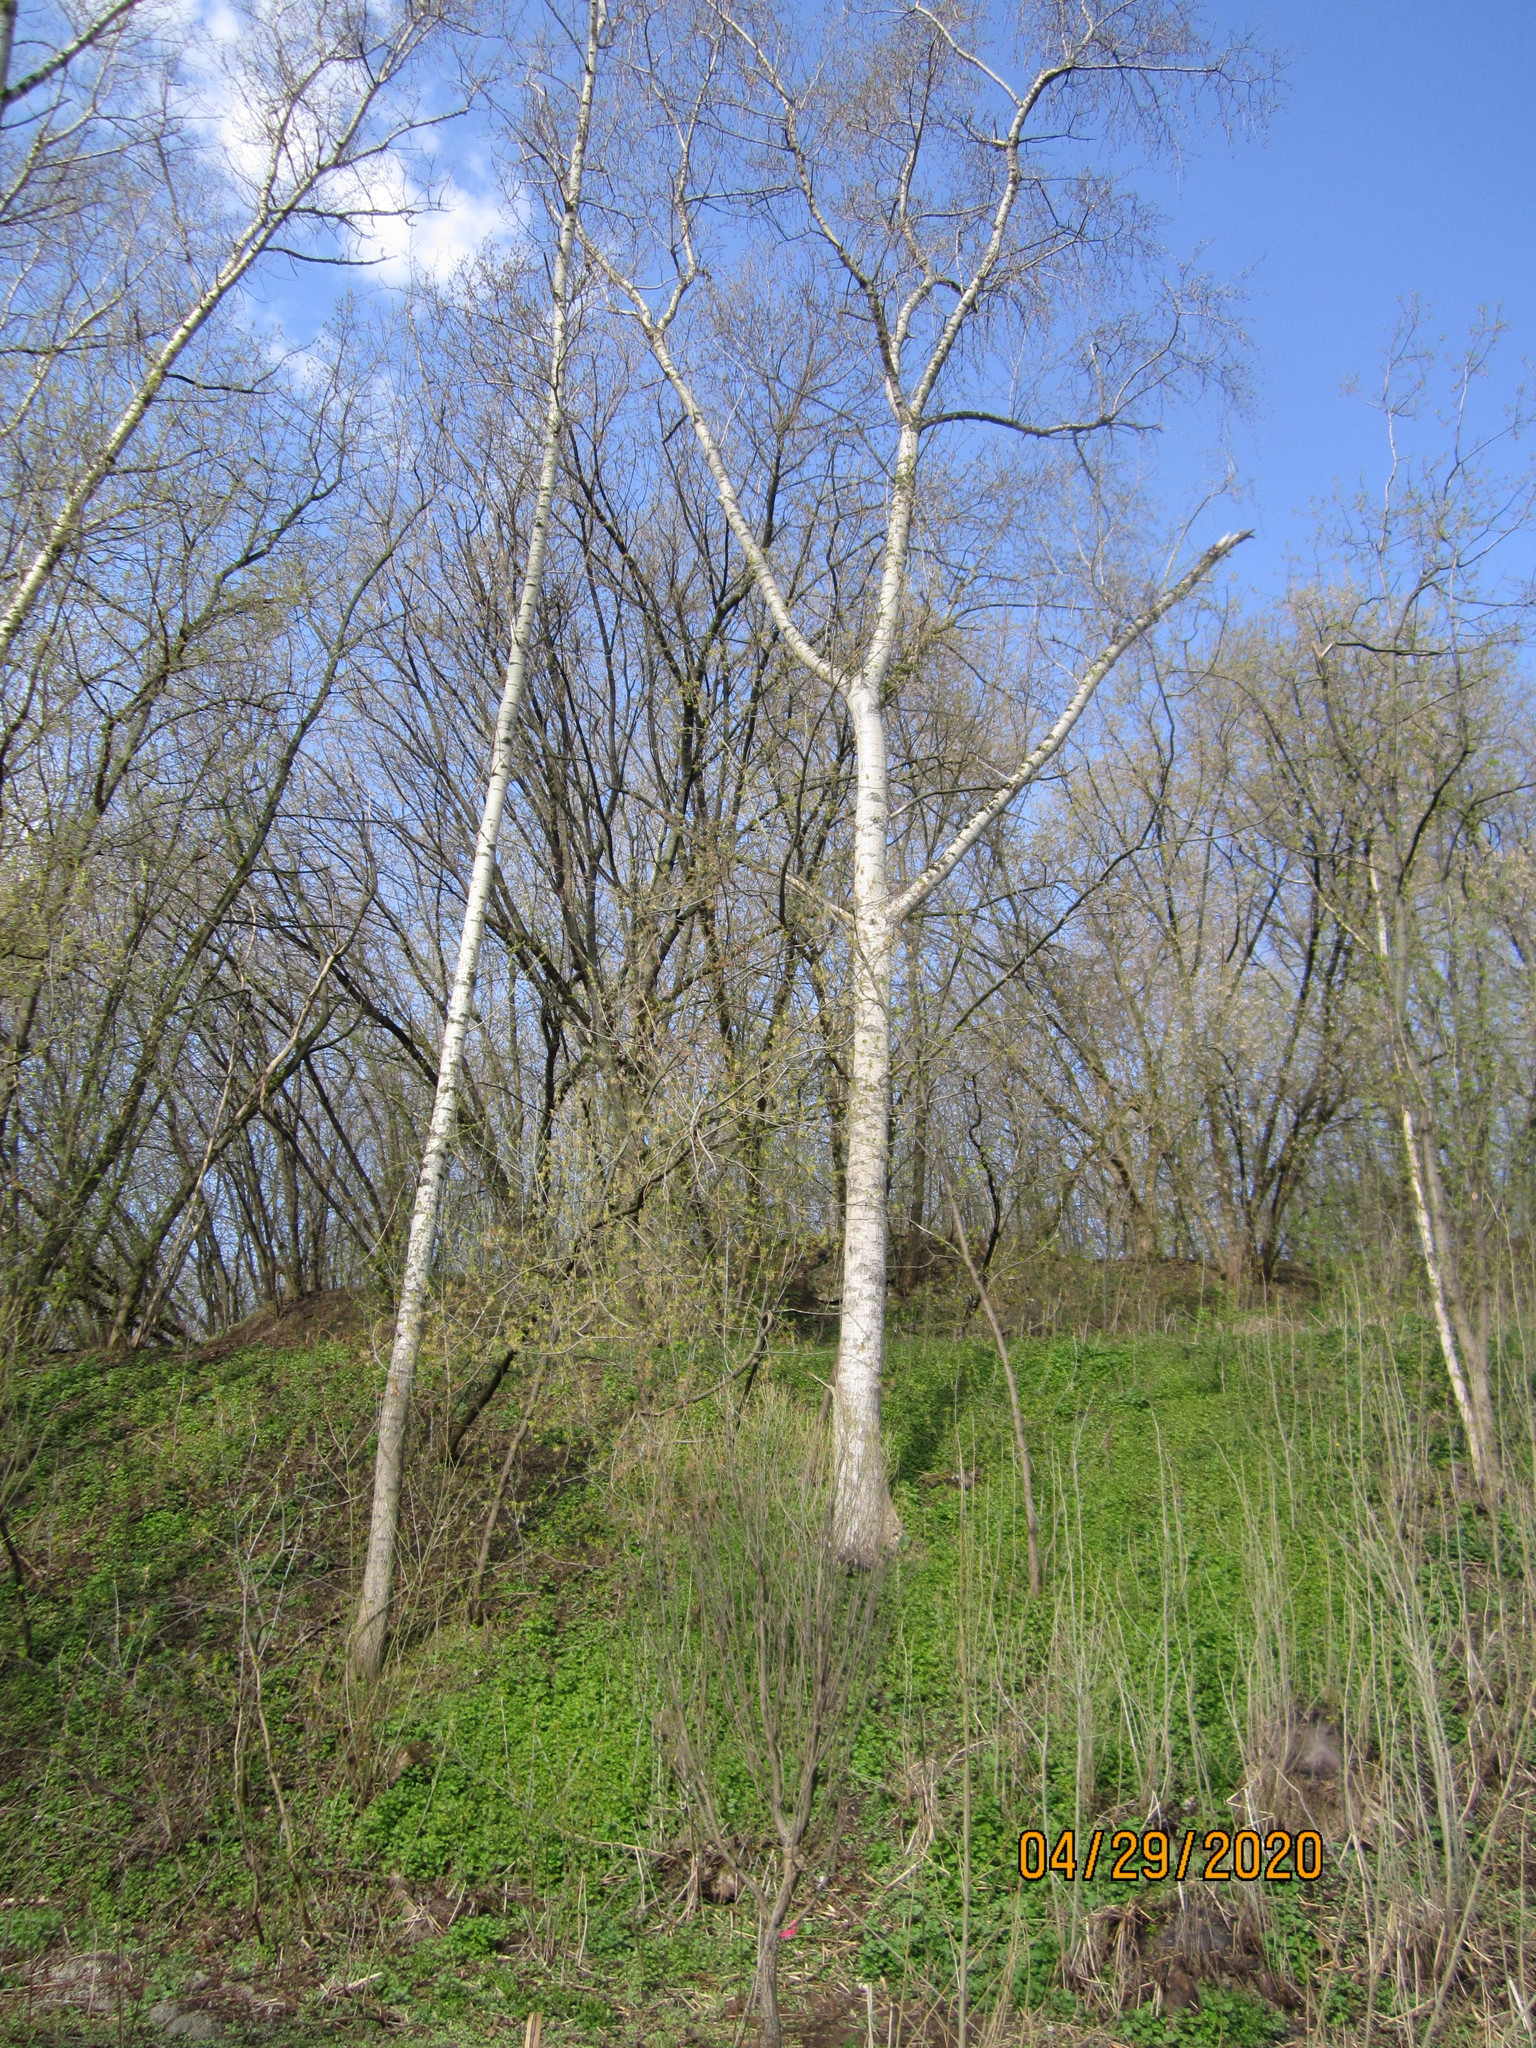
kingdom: Plantae
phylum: Tracheophyta
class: Magnoliopsida
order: Malpighiales
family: Salicaceae
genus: Populus
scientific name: Populus tremula
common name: European aspen
